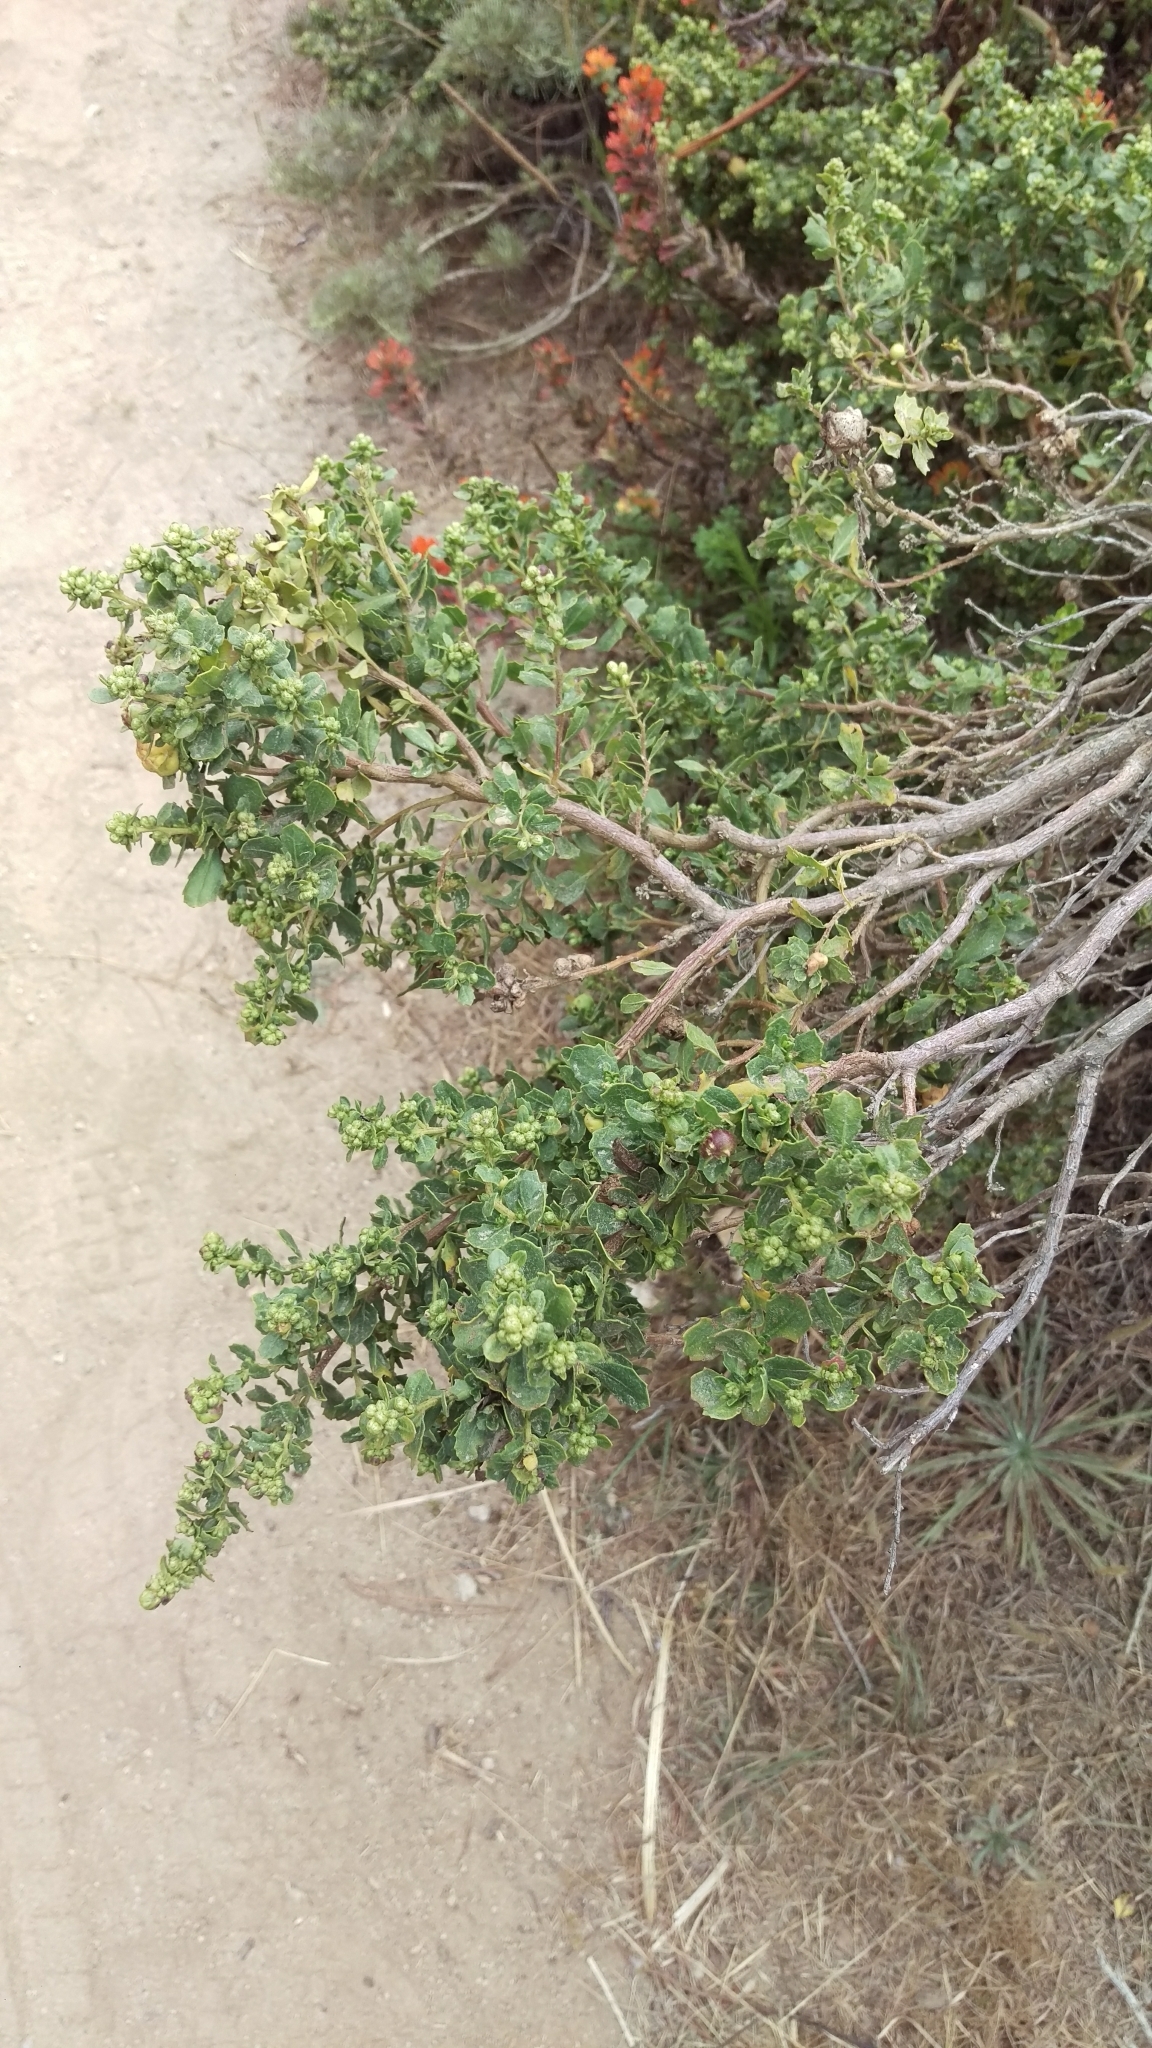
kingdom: Plantae
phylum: Tracheophyta
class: Magnoliopsida
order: Asterales
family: Asteraceae
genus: Baccharis
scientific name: Baccharis pilularis
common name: Coyotebrush
